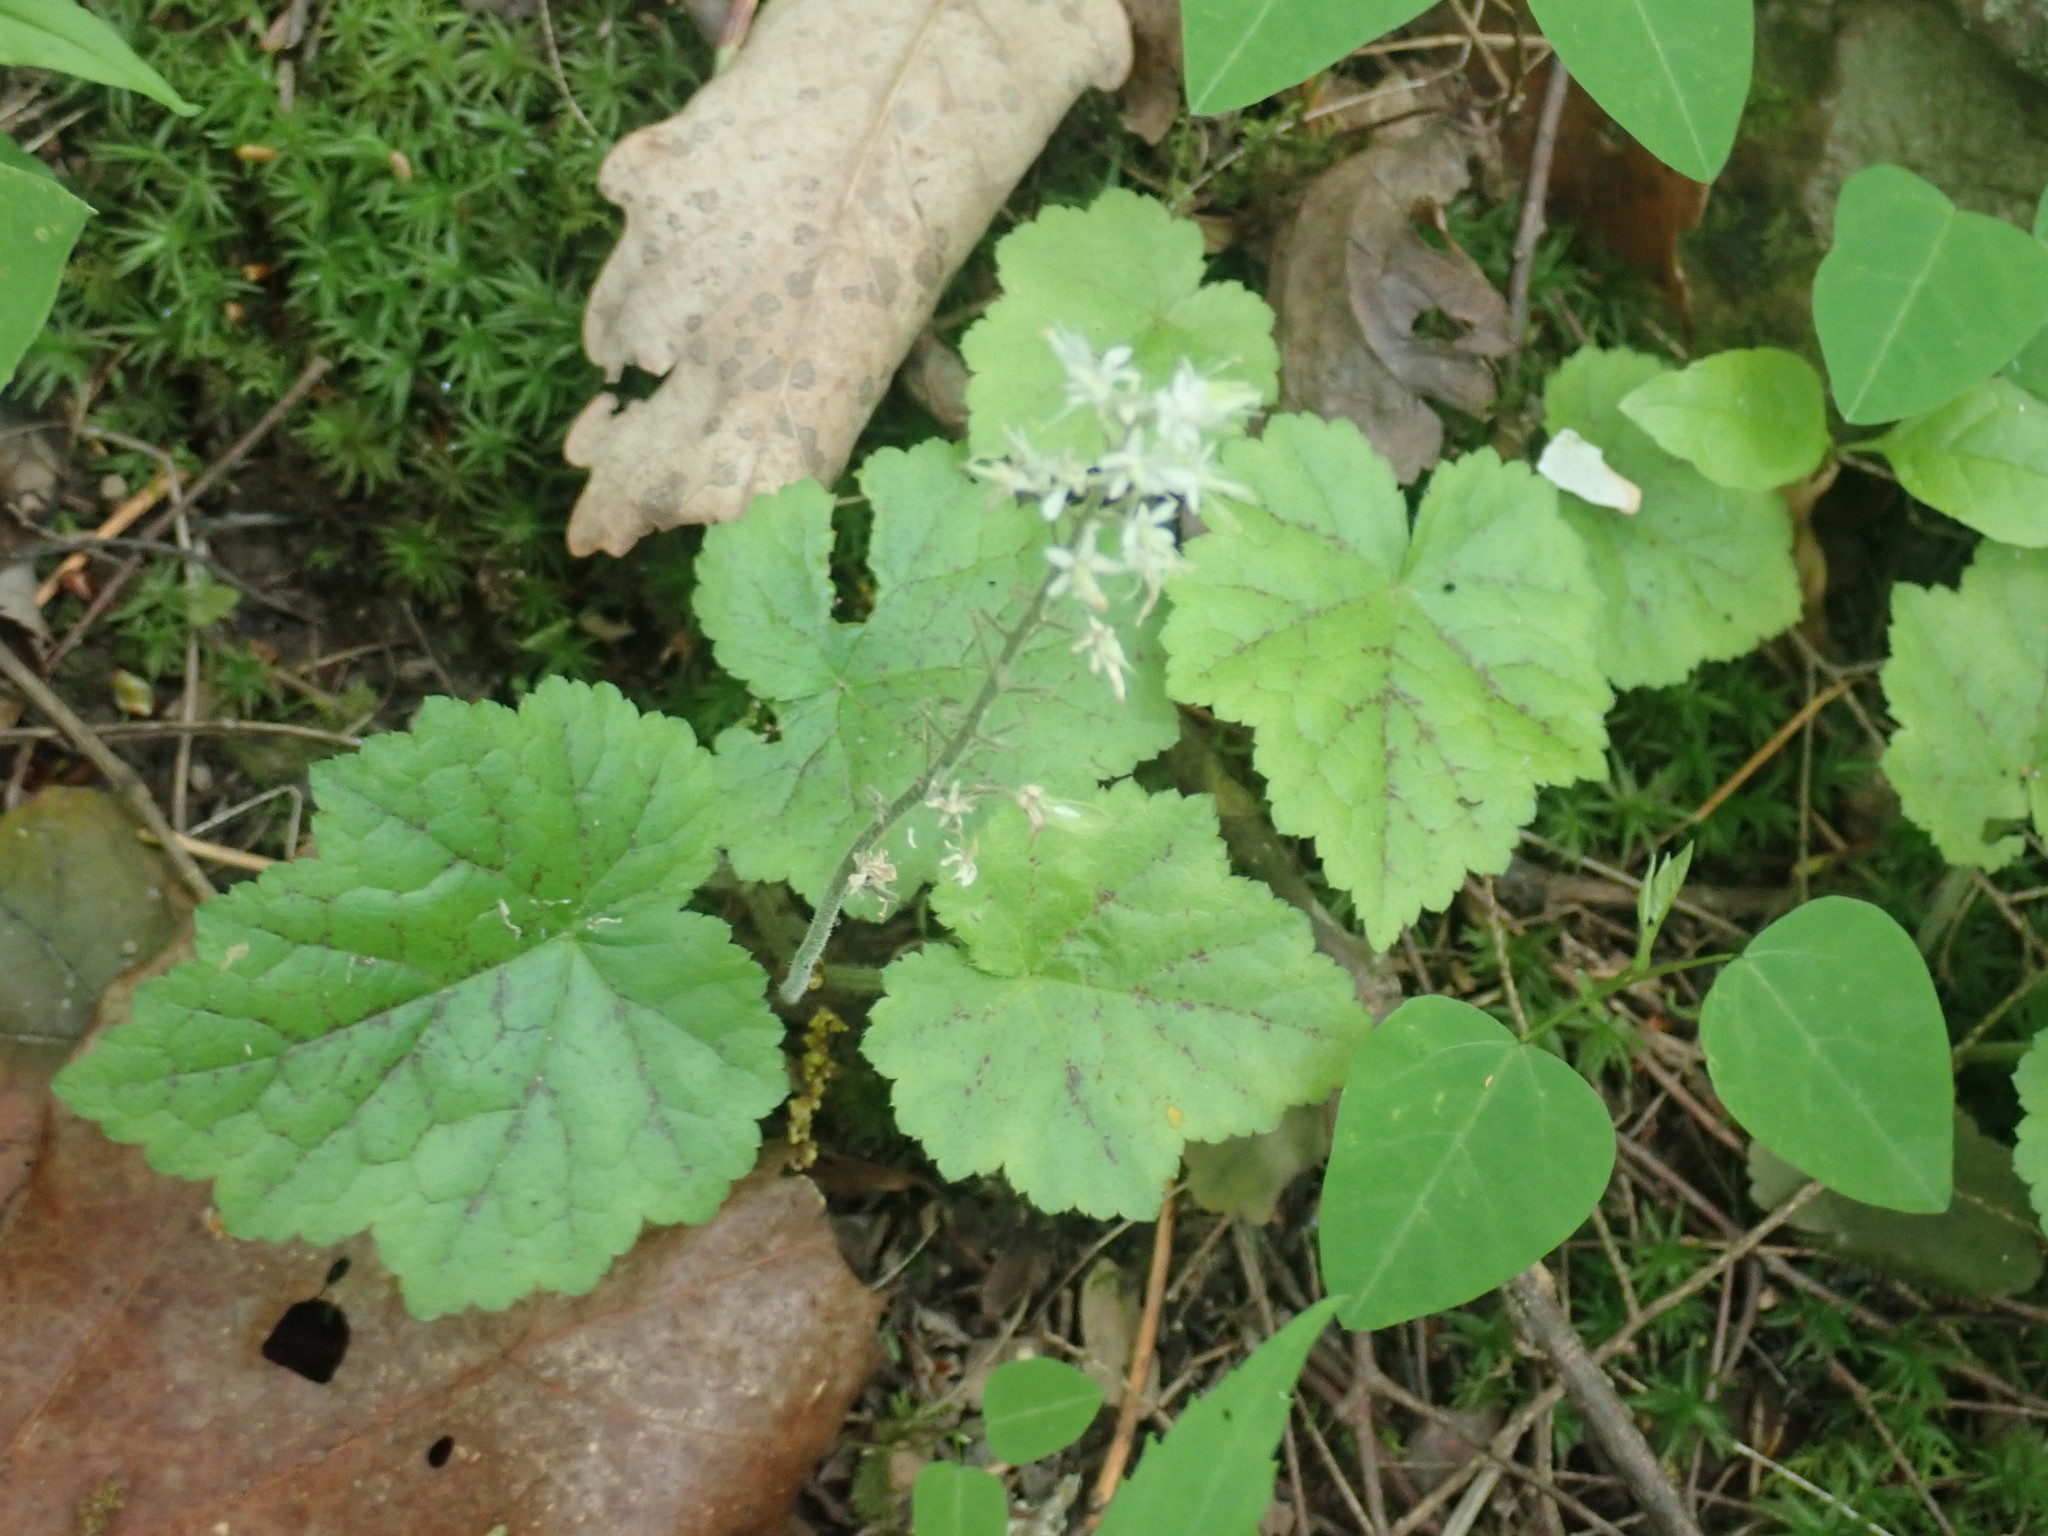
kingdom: Plantae
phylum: Tracheophyta
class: Magnoliopsida
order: Saxifragales
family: Saxifragaceae
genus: Tiarella
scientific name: Tiarella stolonifera
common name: Stoloniferous foamflower
